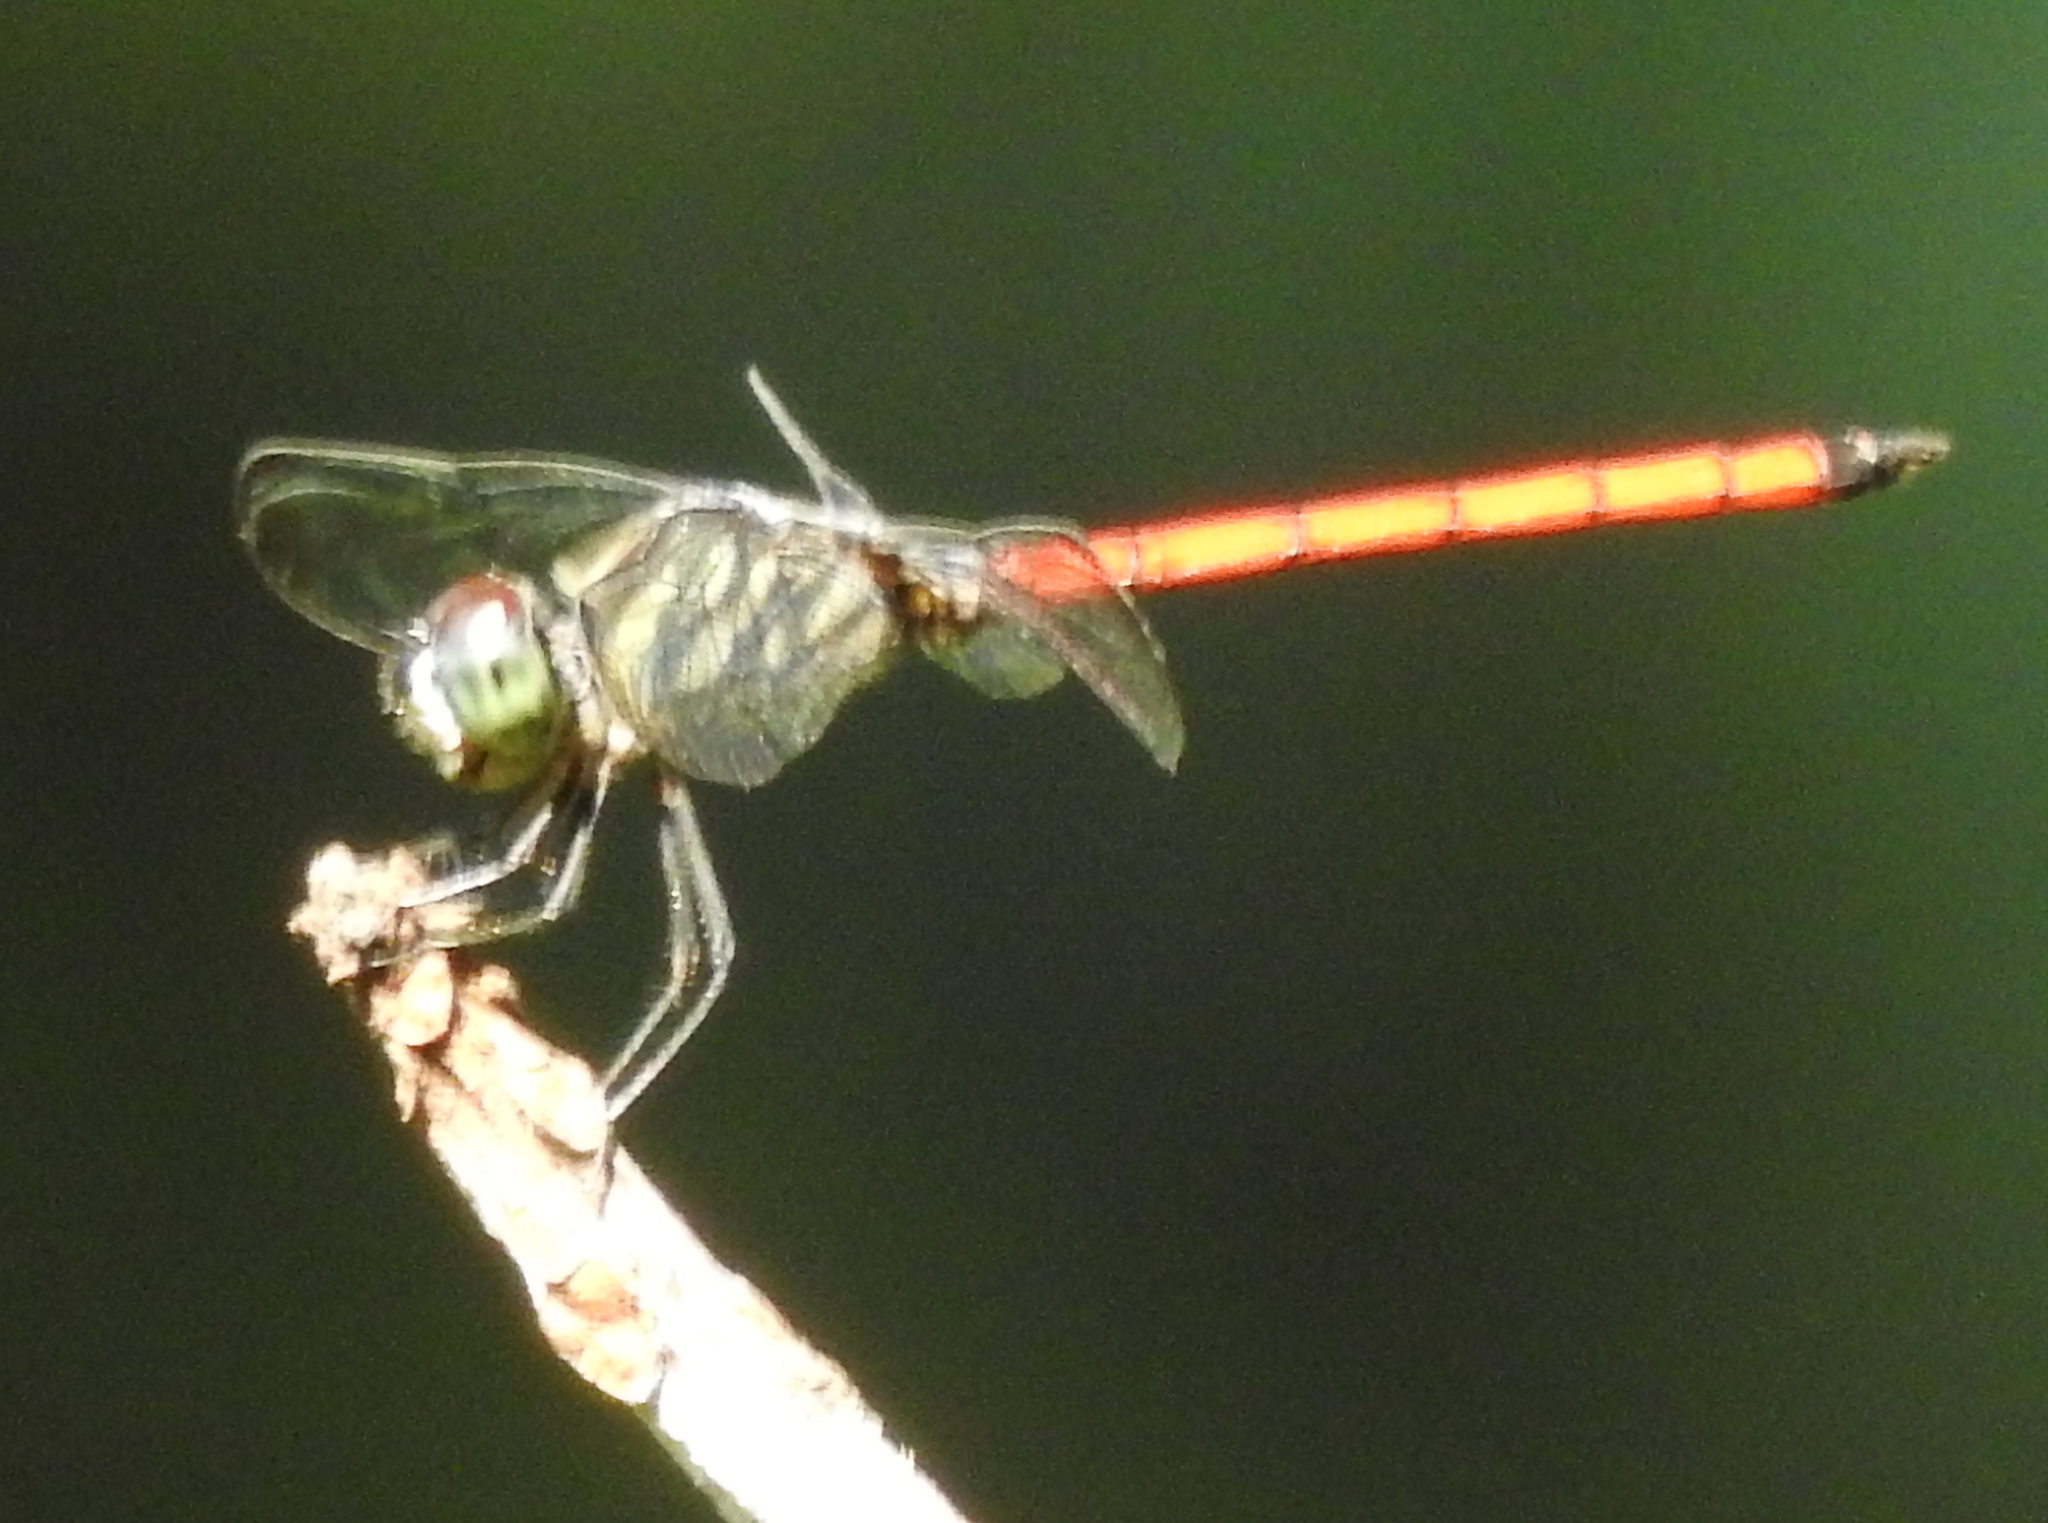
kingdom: Animalia
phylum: Arthropoda
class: Insecta
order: Odonata
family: Libellulidae
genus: Lathrecista
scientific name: Lathrecista asiatica
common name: Scarlet grenadier
